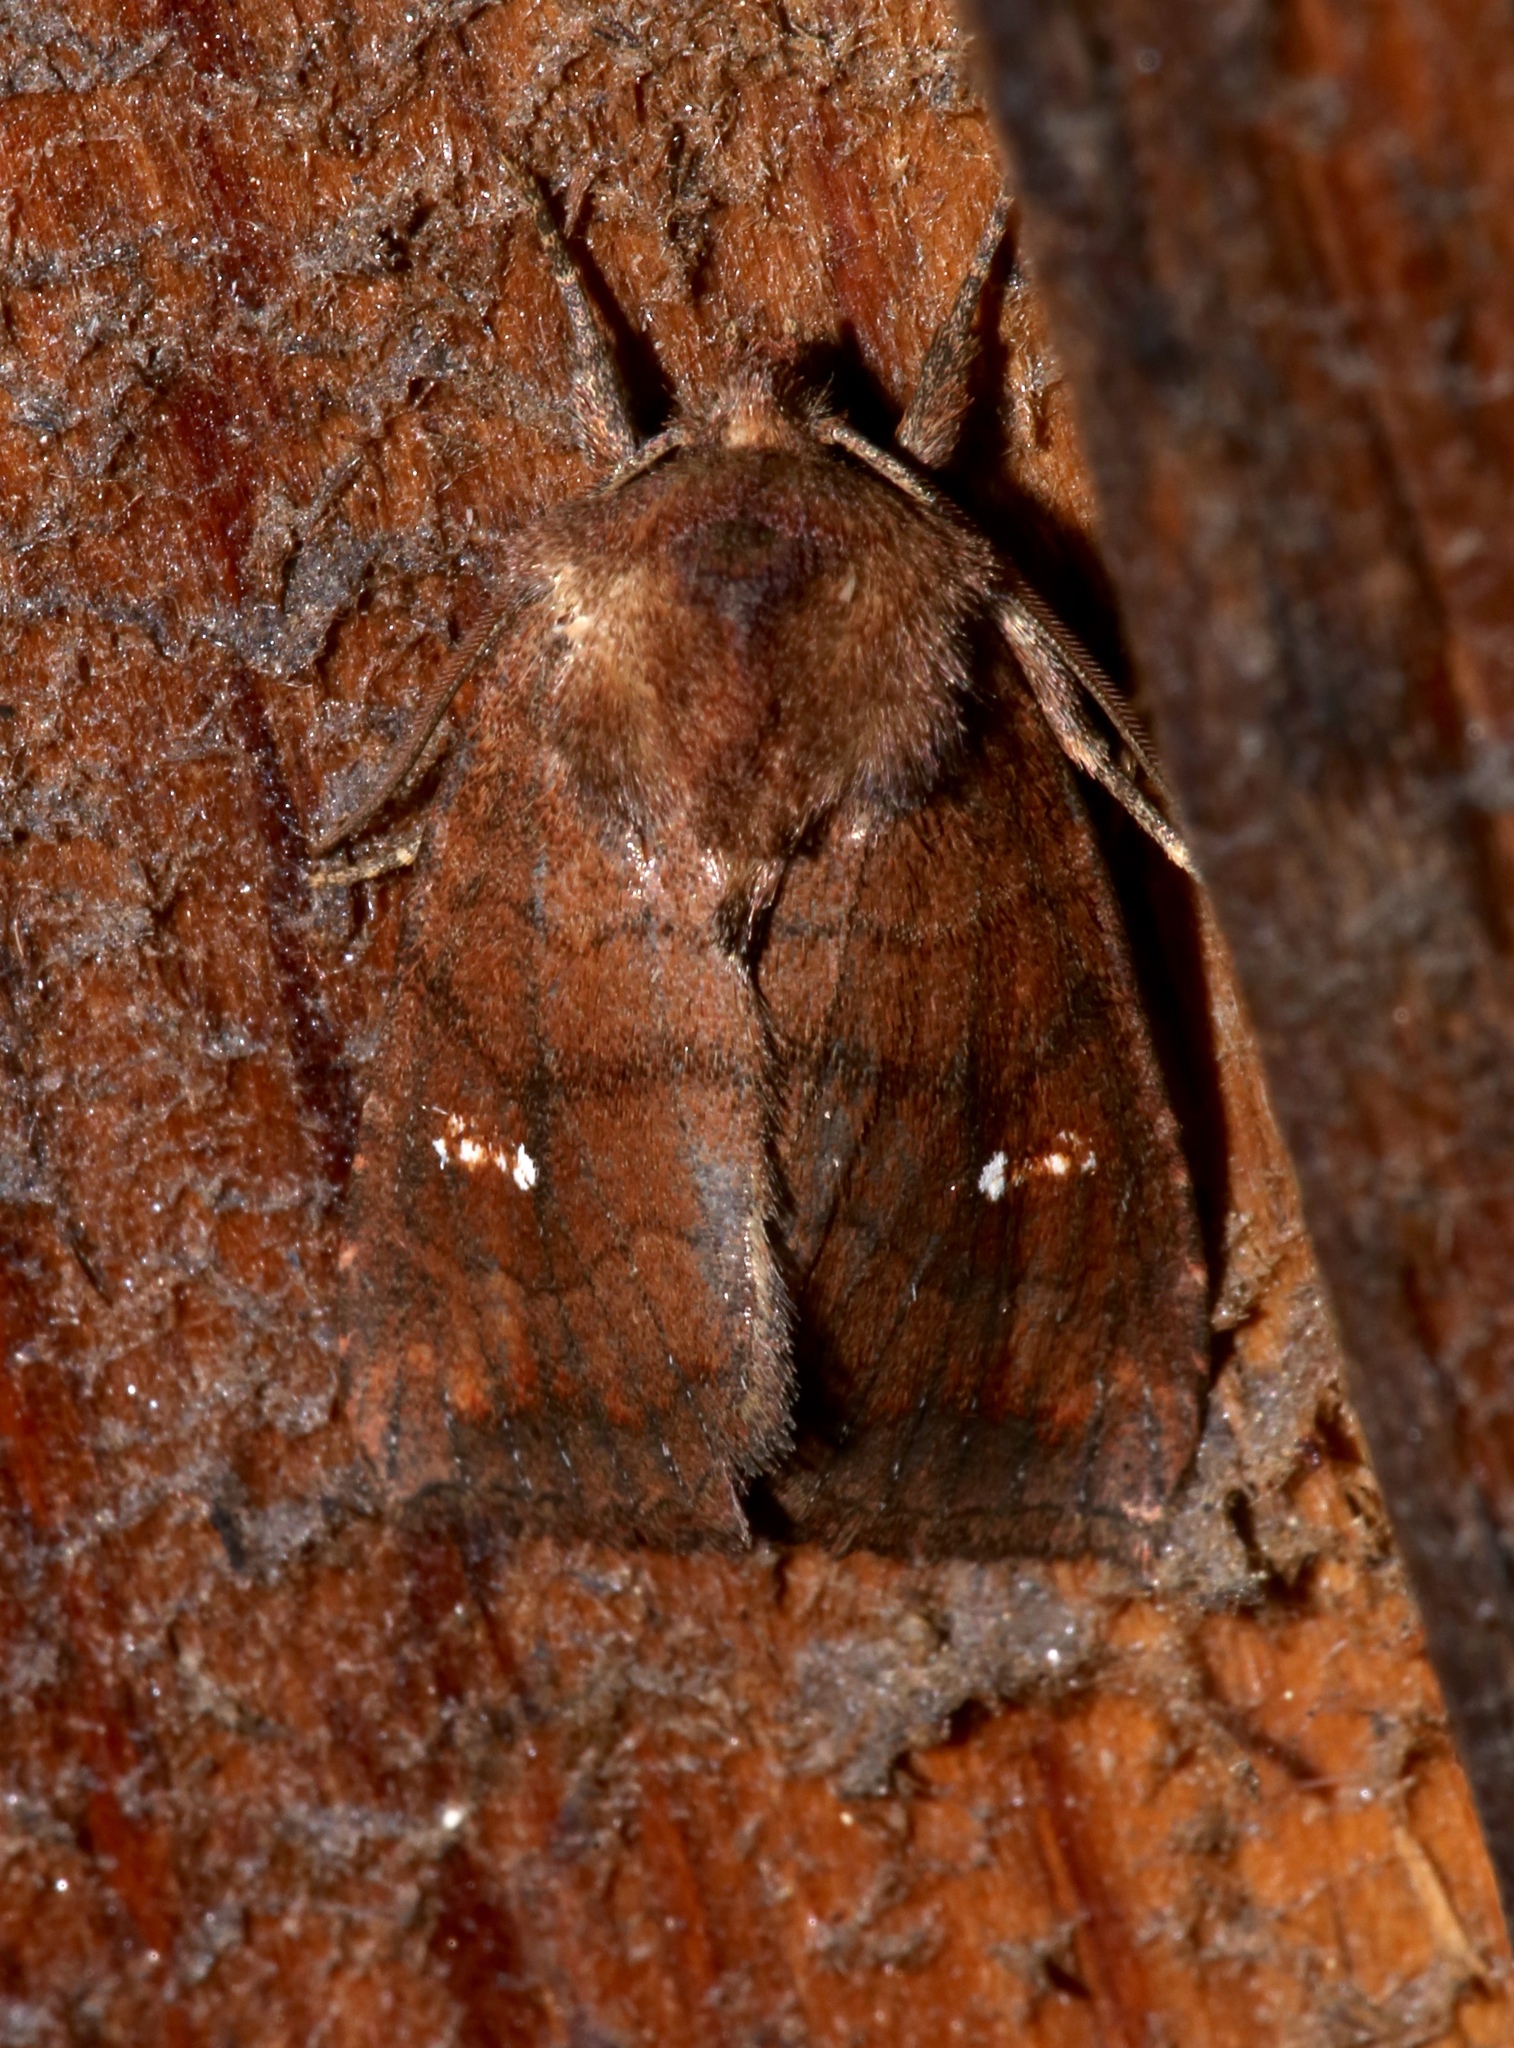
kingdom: Animalia
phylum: Arthropoda
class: Insecta
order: Lepidoptera
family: Noctuidae
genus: Tricholita
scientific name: Tricholita signata
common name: Signate quaker
